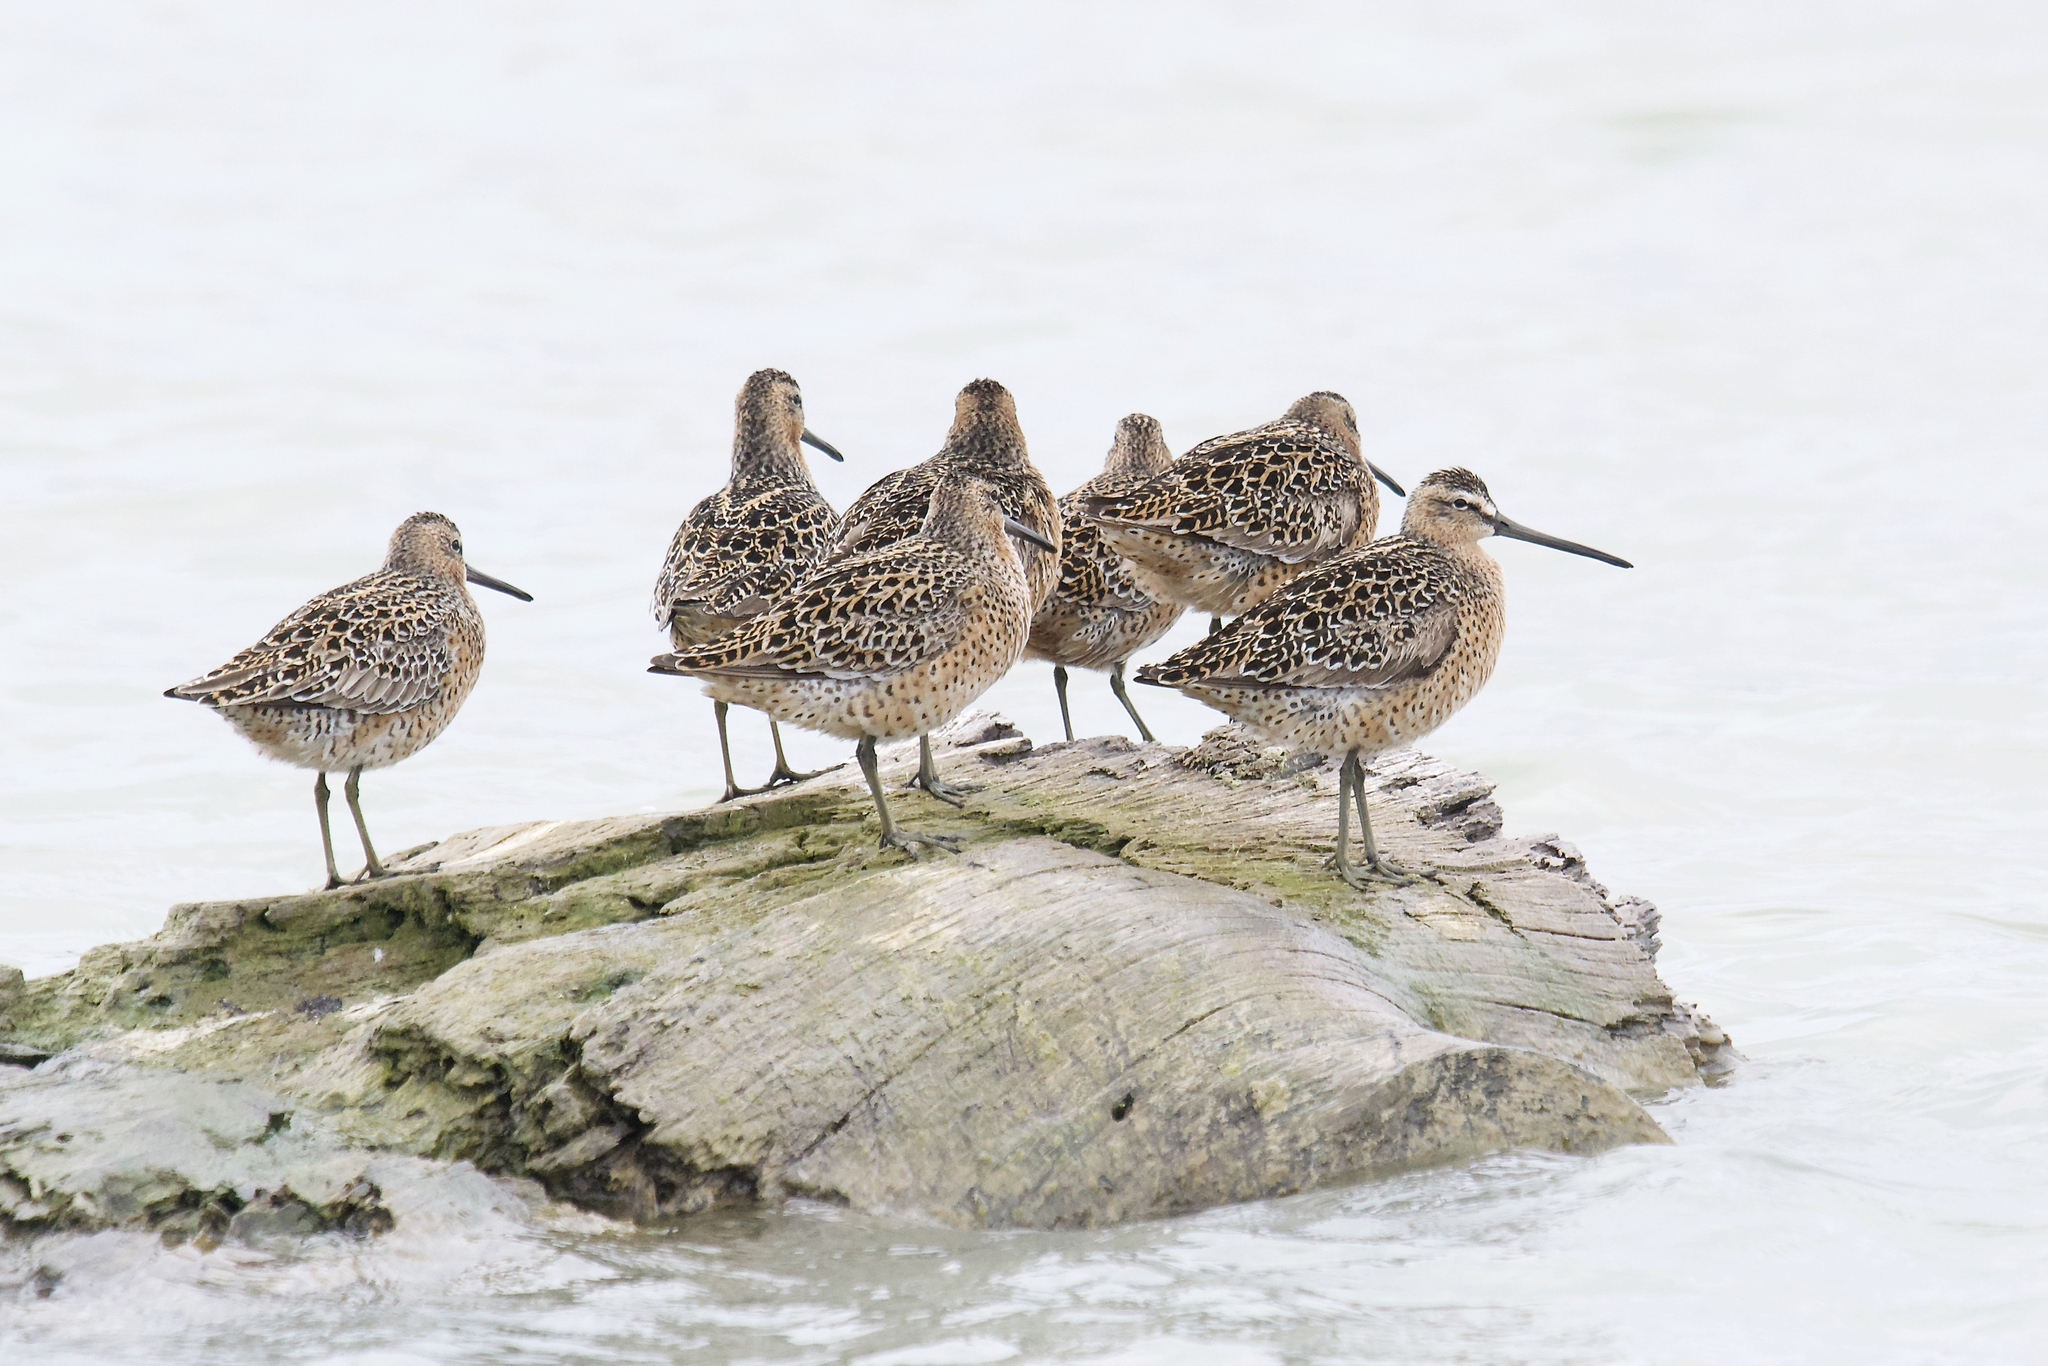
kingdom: Animalia
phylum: Chordata
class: Aves
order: Charadriiformes
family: Scolopacidae
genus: Limnodromus
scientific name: Limnodromus griseus
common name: Short-billed dowitcher
